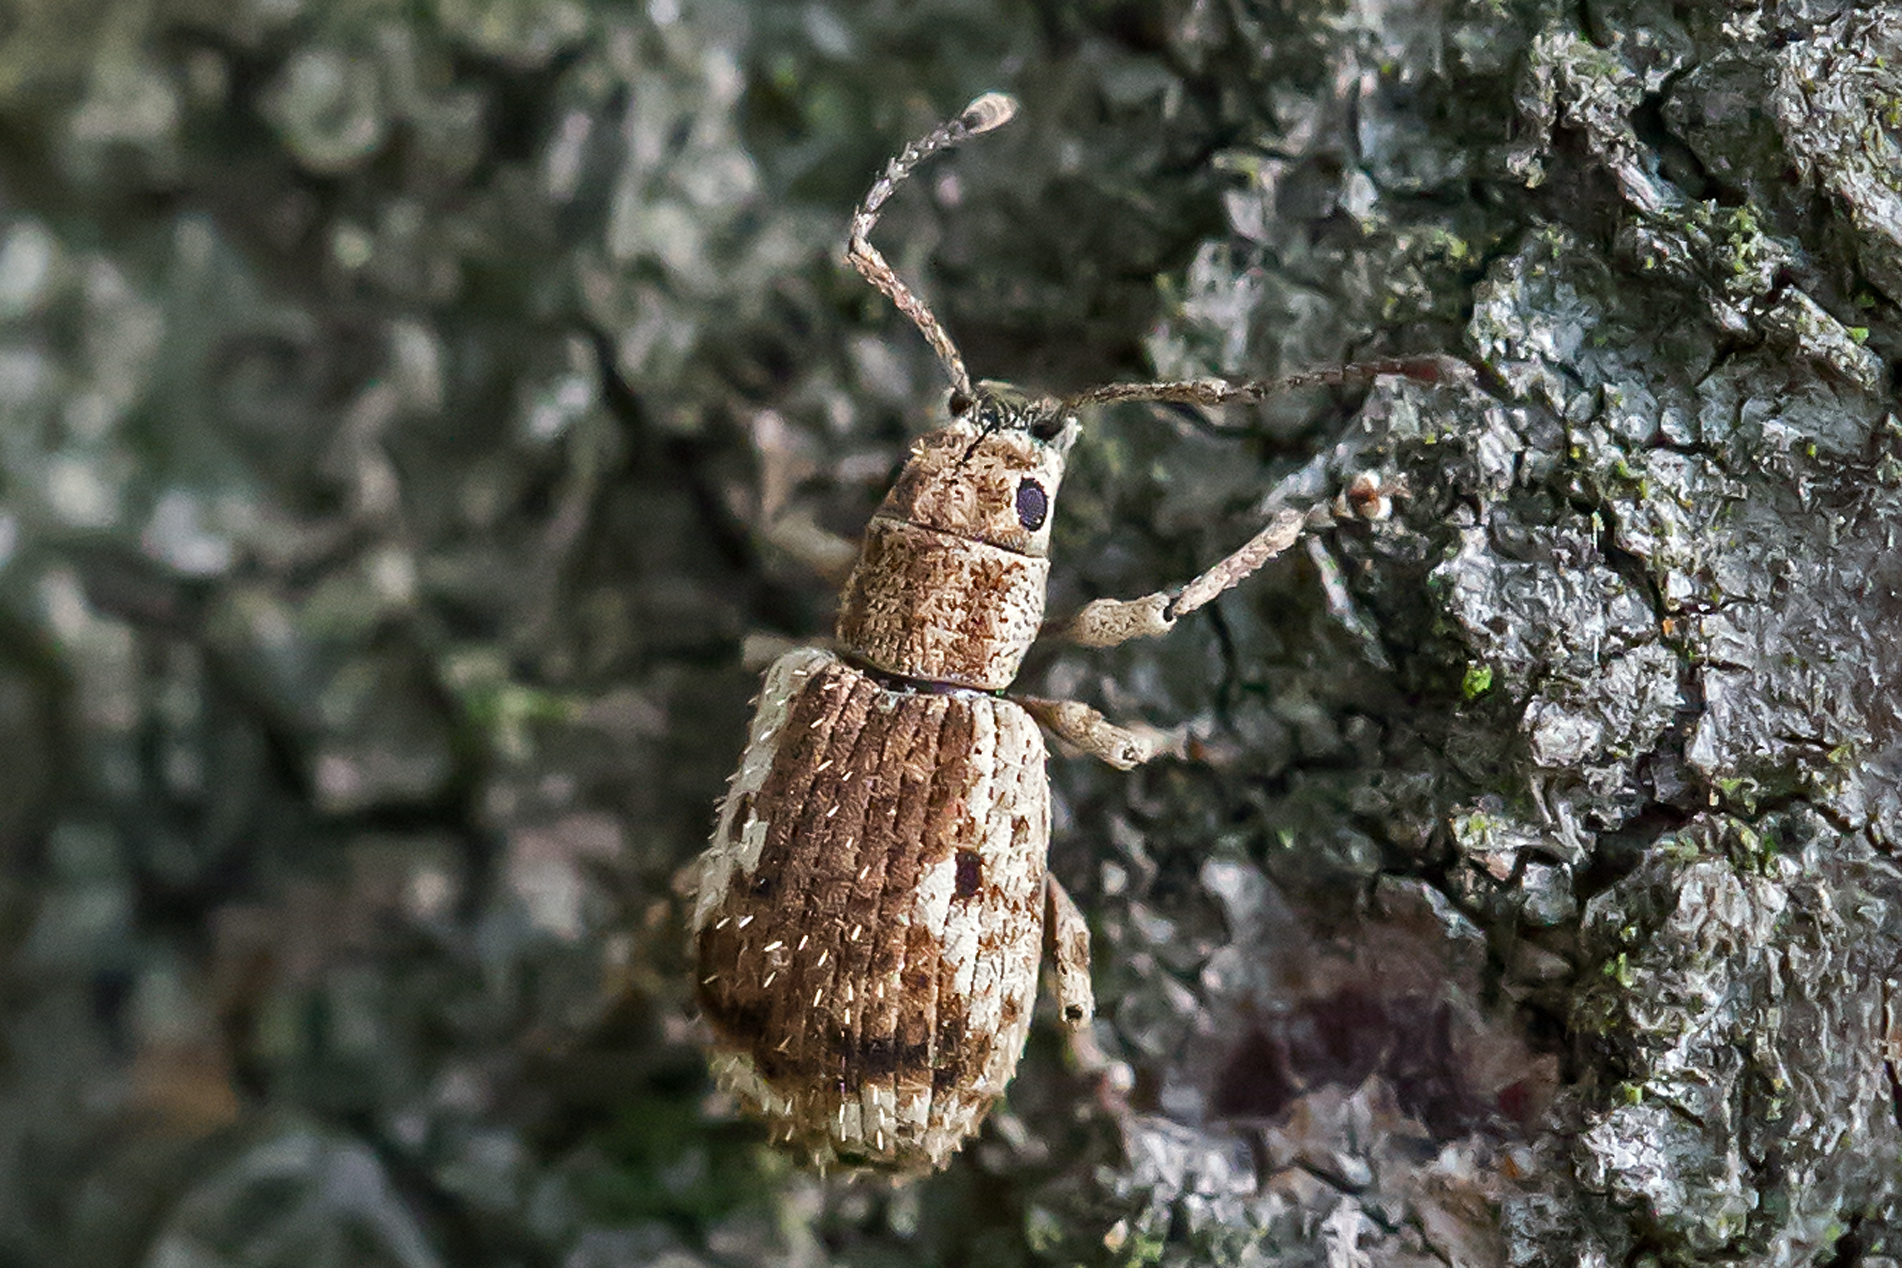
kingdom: Animalia
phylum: Arthropoda
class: Insecta
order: Coleoptera
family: Curculionidae
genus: Pseudoedophrys
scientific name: Pseudoedophrys hilleri
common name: Weevil
